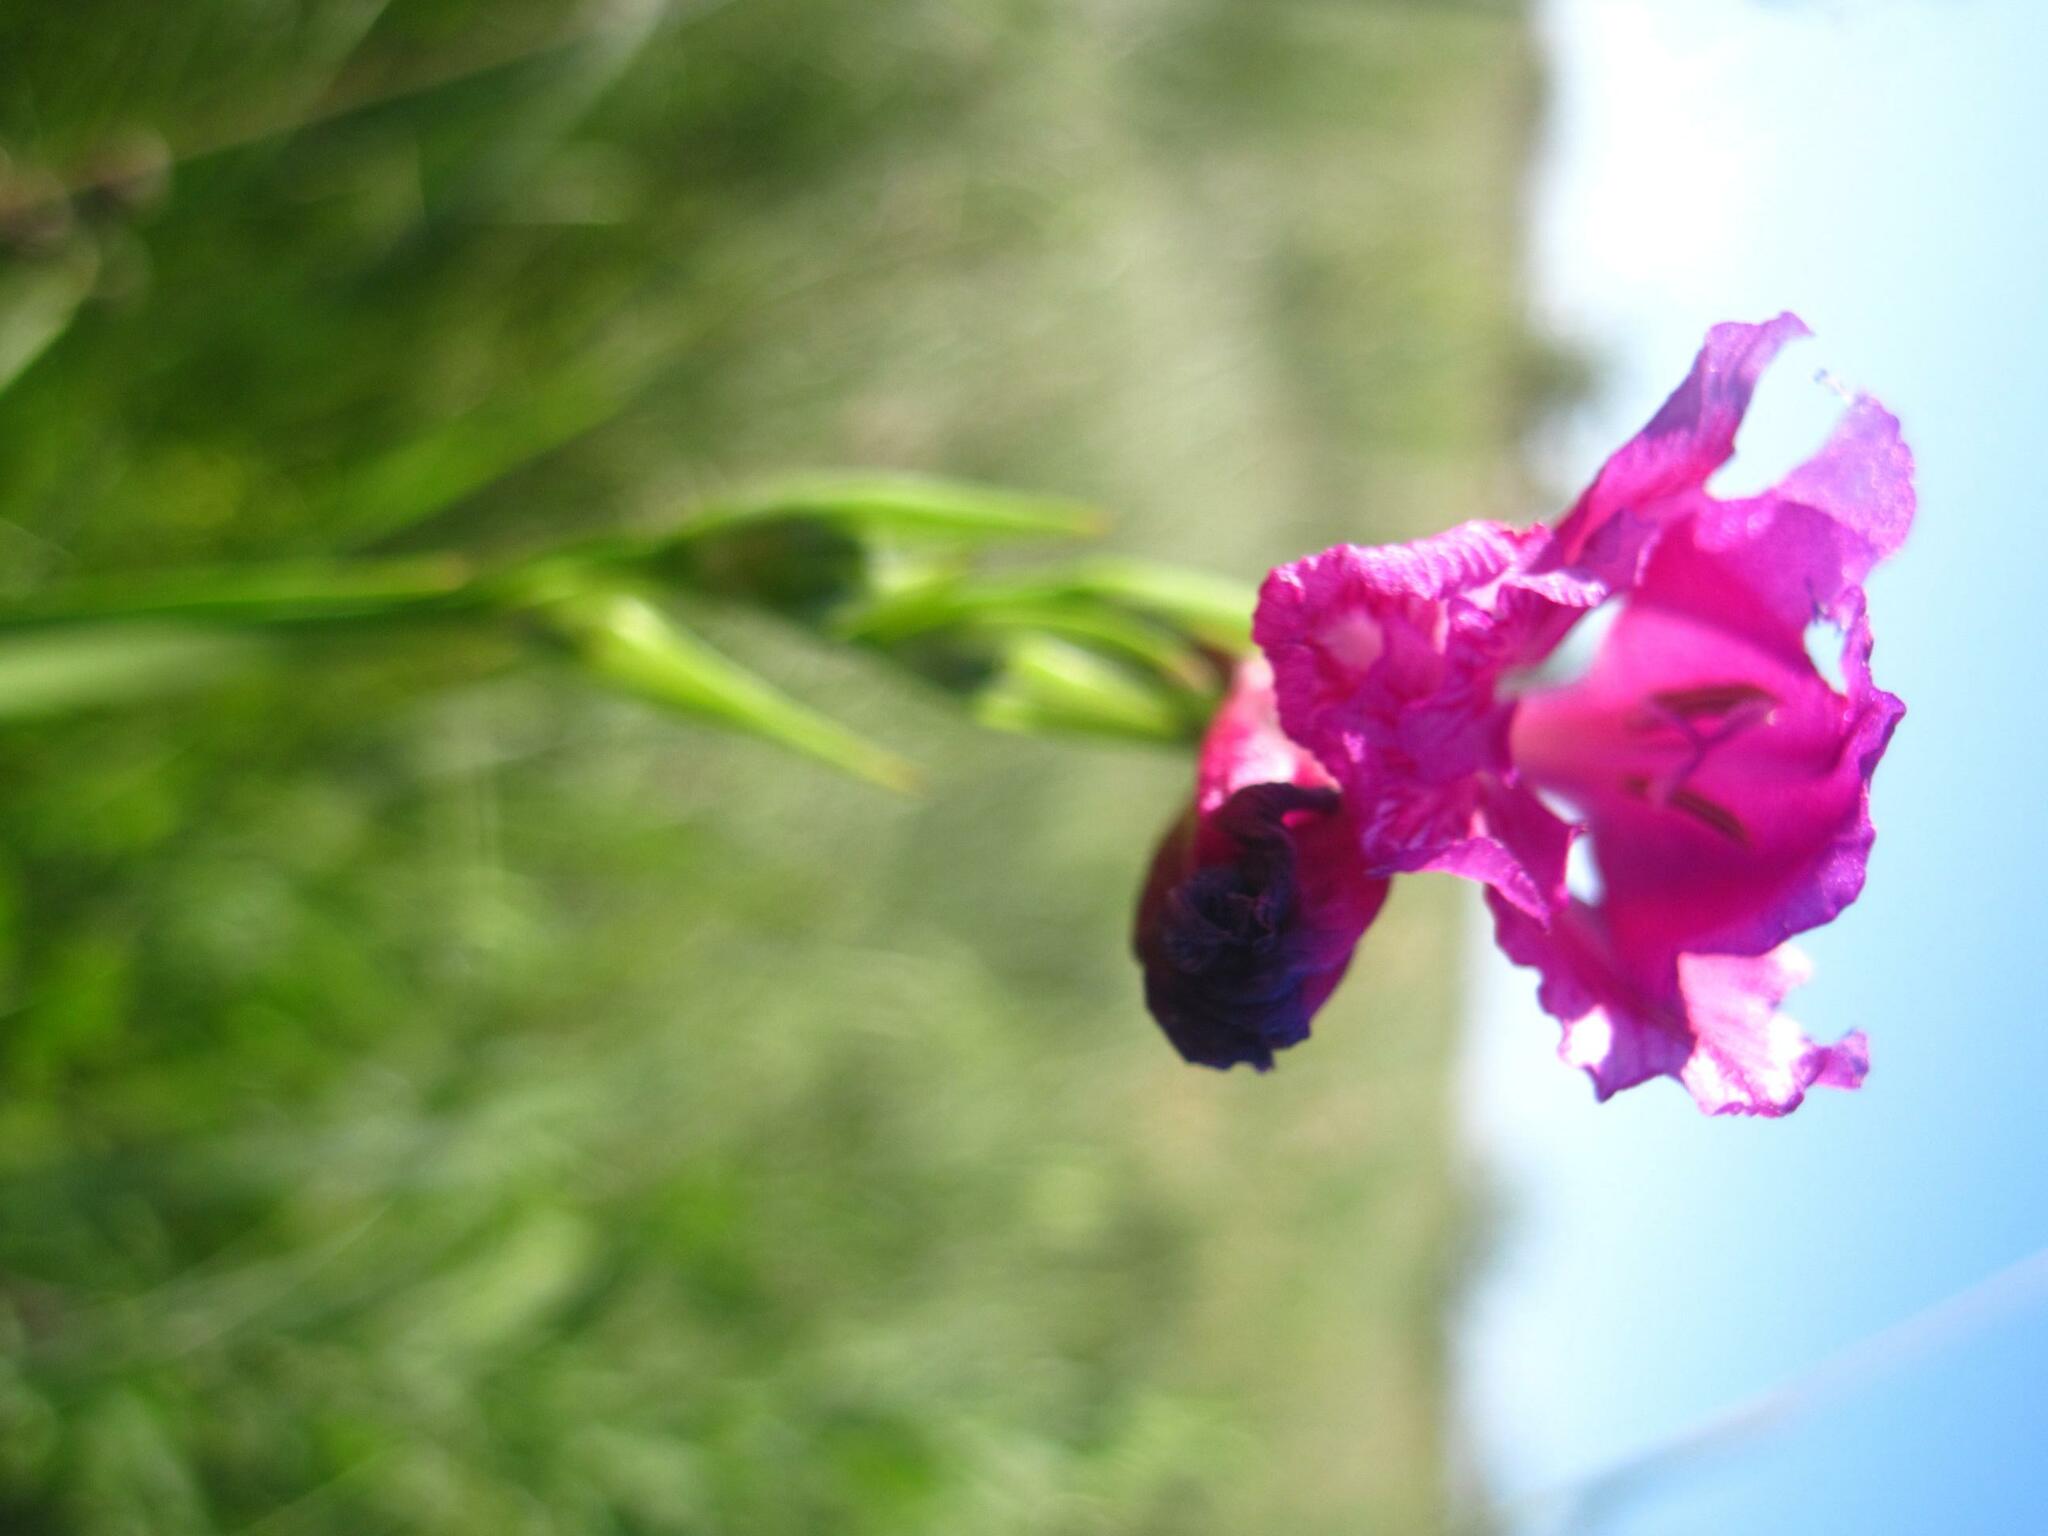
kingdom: Plantae
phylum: Tracheophyta
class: Liliopsida
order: Asparagales
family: Iridaceae
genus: Gladiolus
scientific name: Gladiolus tenuis
